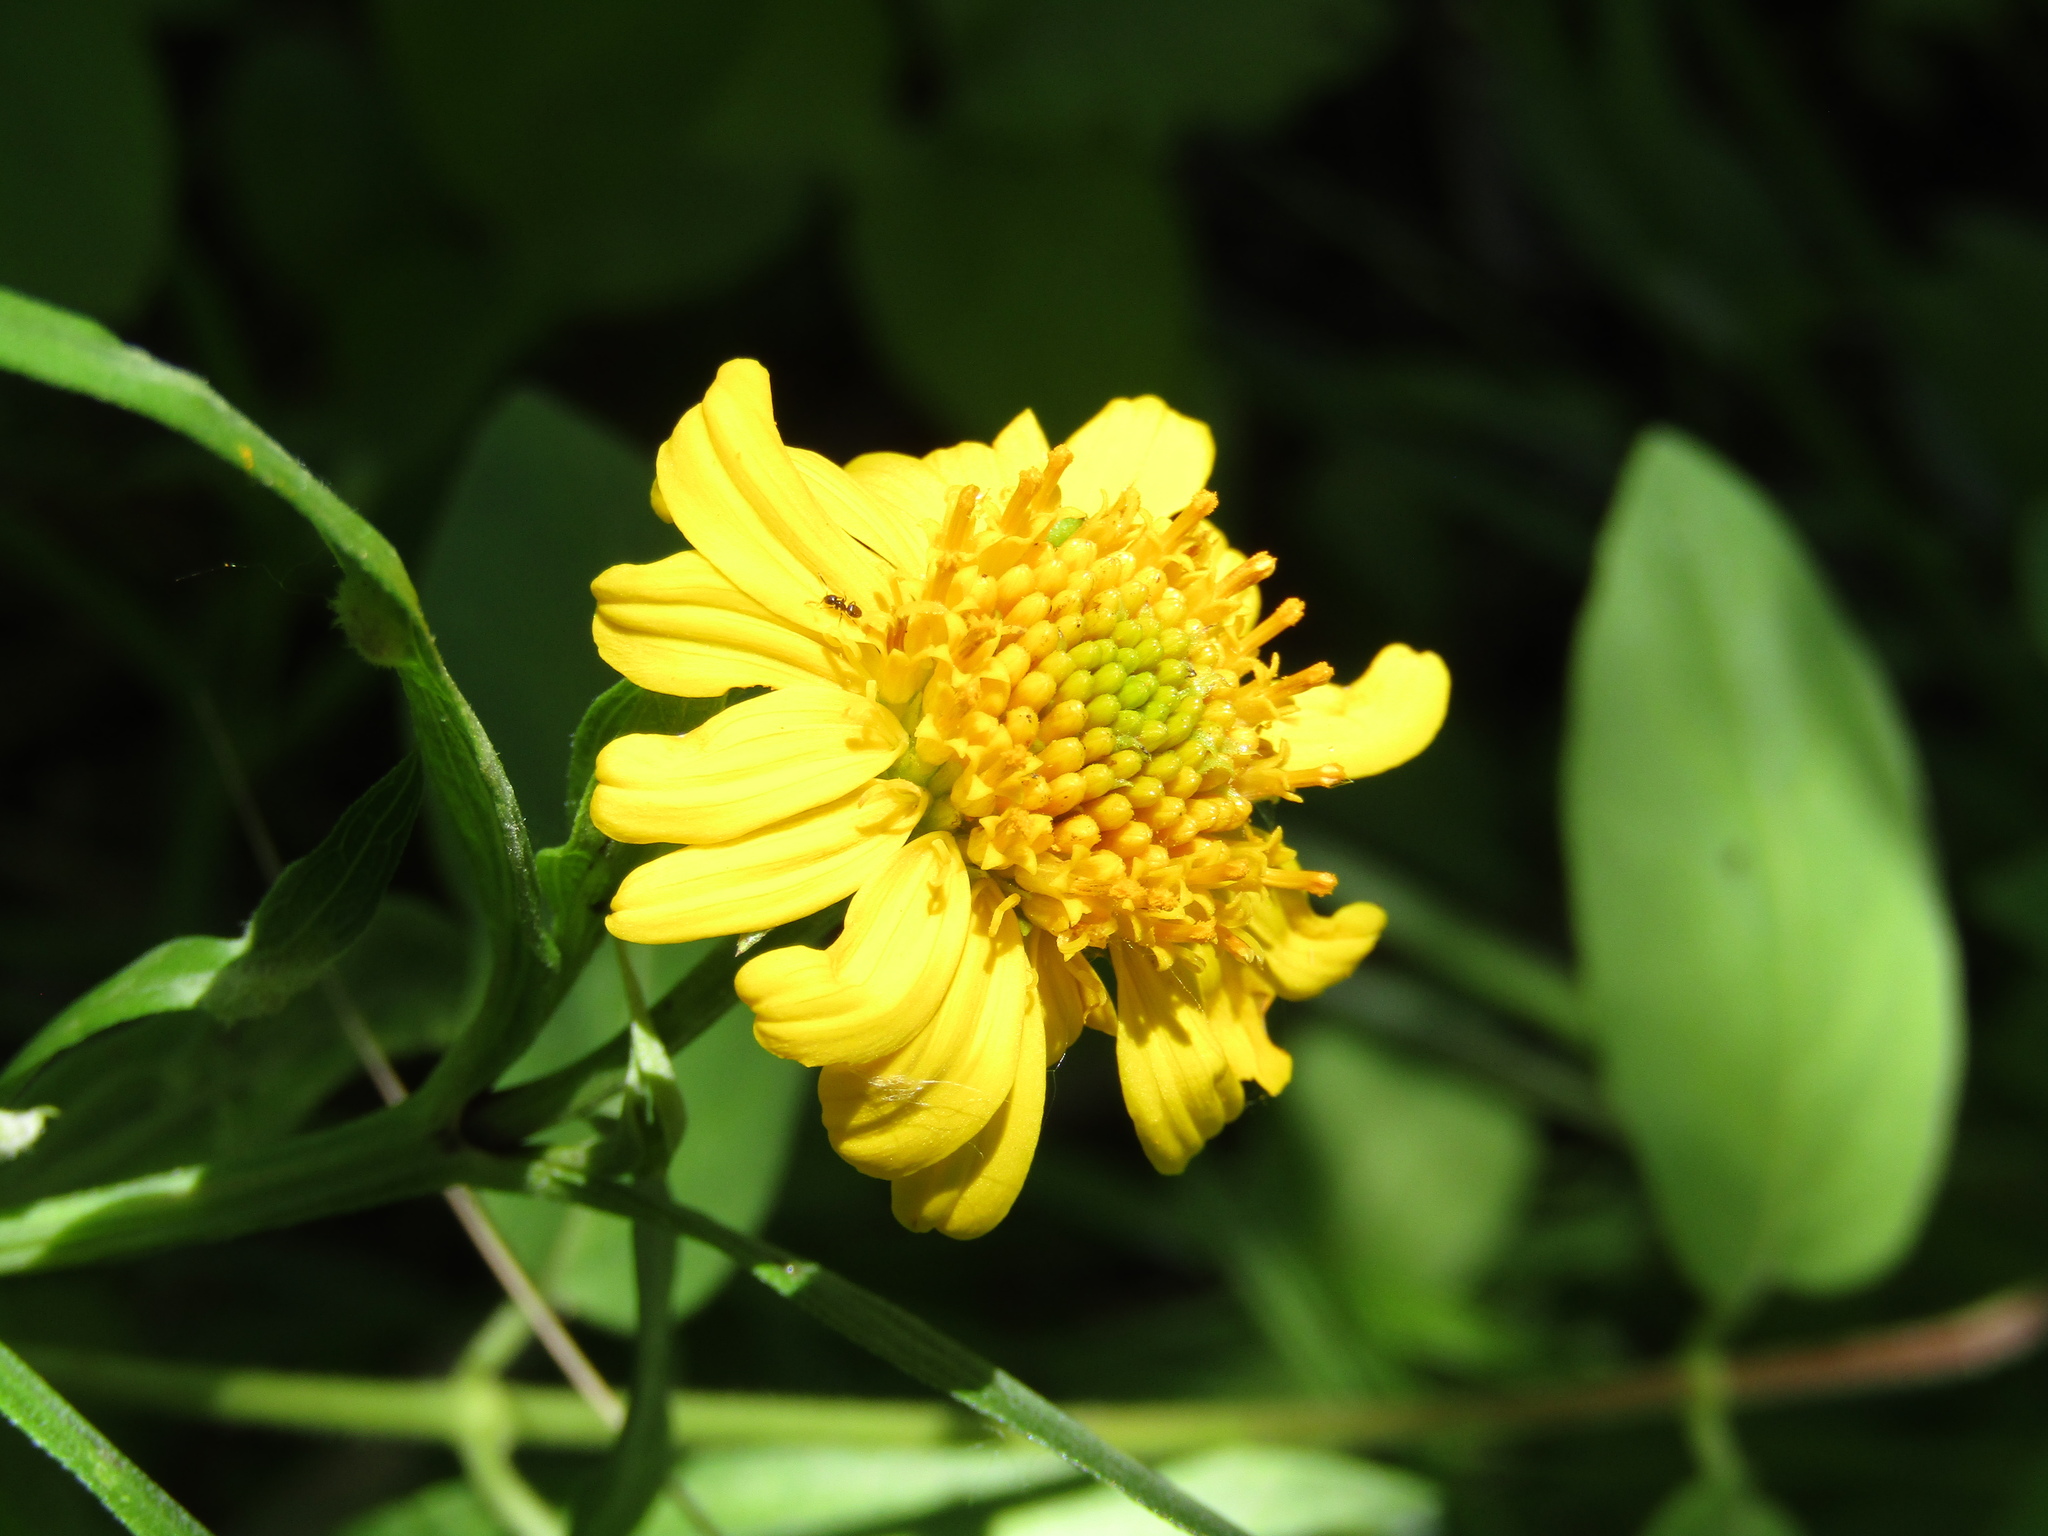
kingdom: Plantae
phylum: Tracheophyta
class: Magnoliopsida
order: Asterales
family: Asteraceae
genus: Pascalia
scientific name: Pascalia glauca
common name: Beach creeping oxeye
